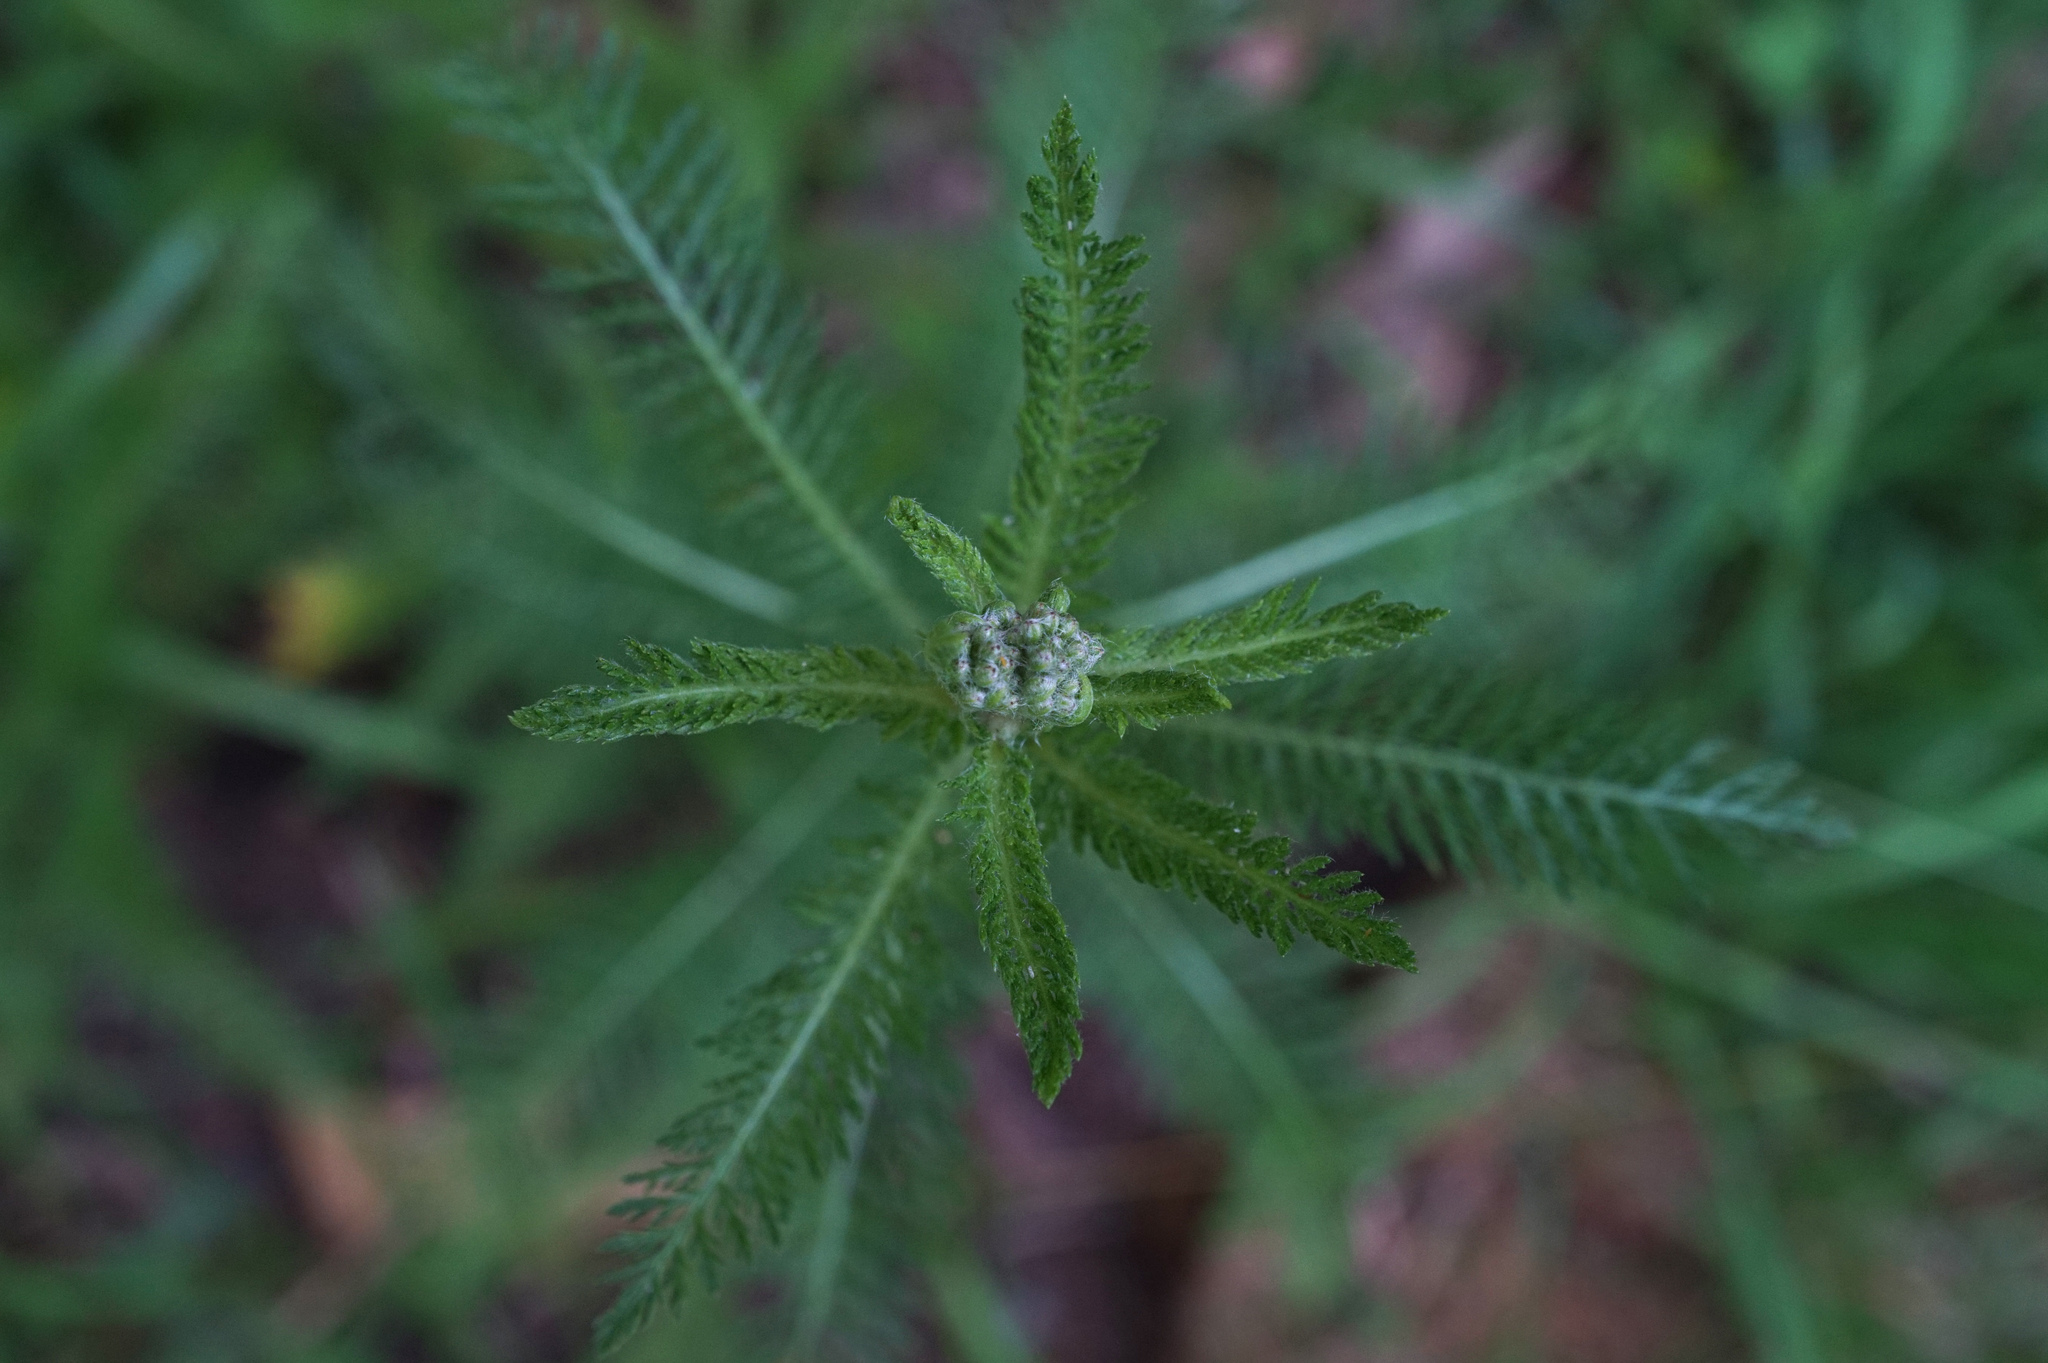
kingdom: Plantae
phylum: Tracheophyta
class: Magnoliopsida
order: Asterales
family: Asteraceae
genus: Achillea
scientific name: Achillea millefolium
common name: Yarrow
